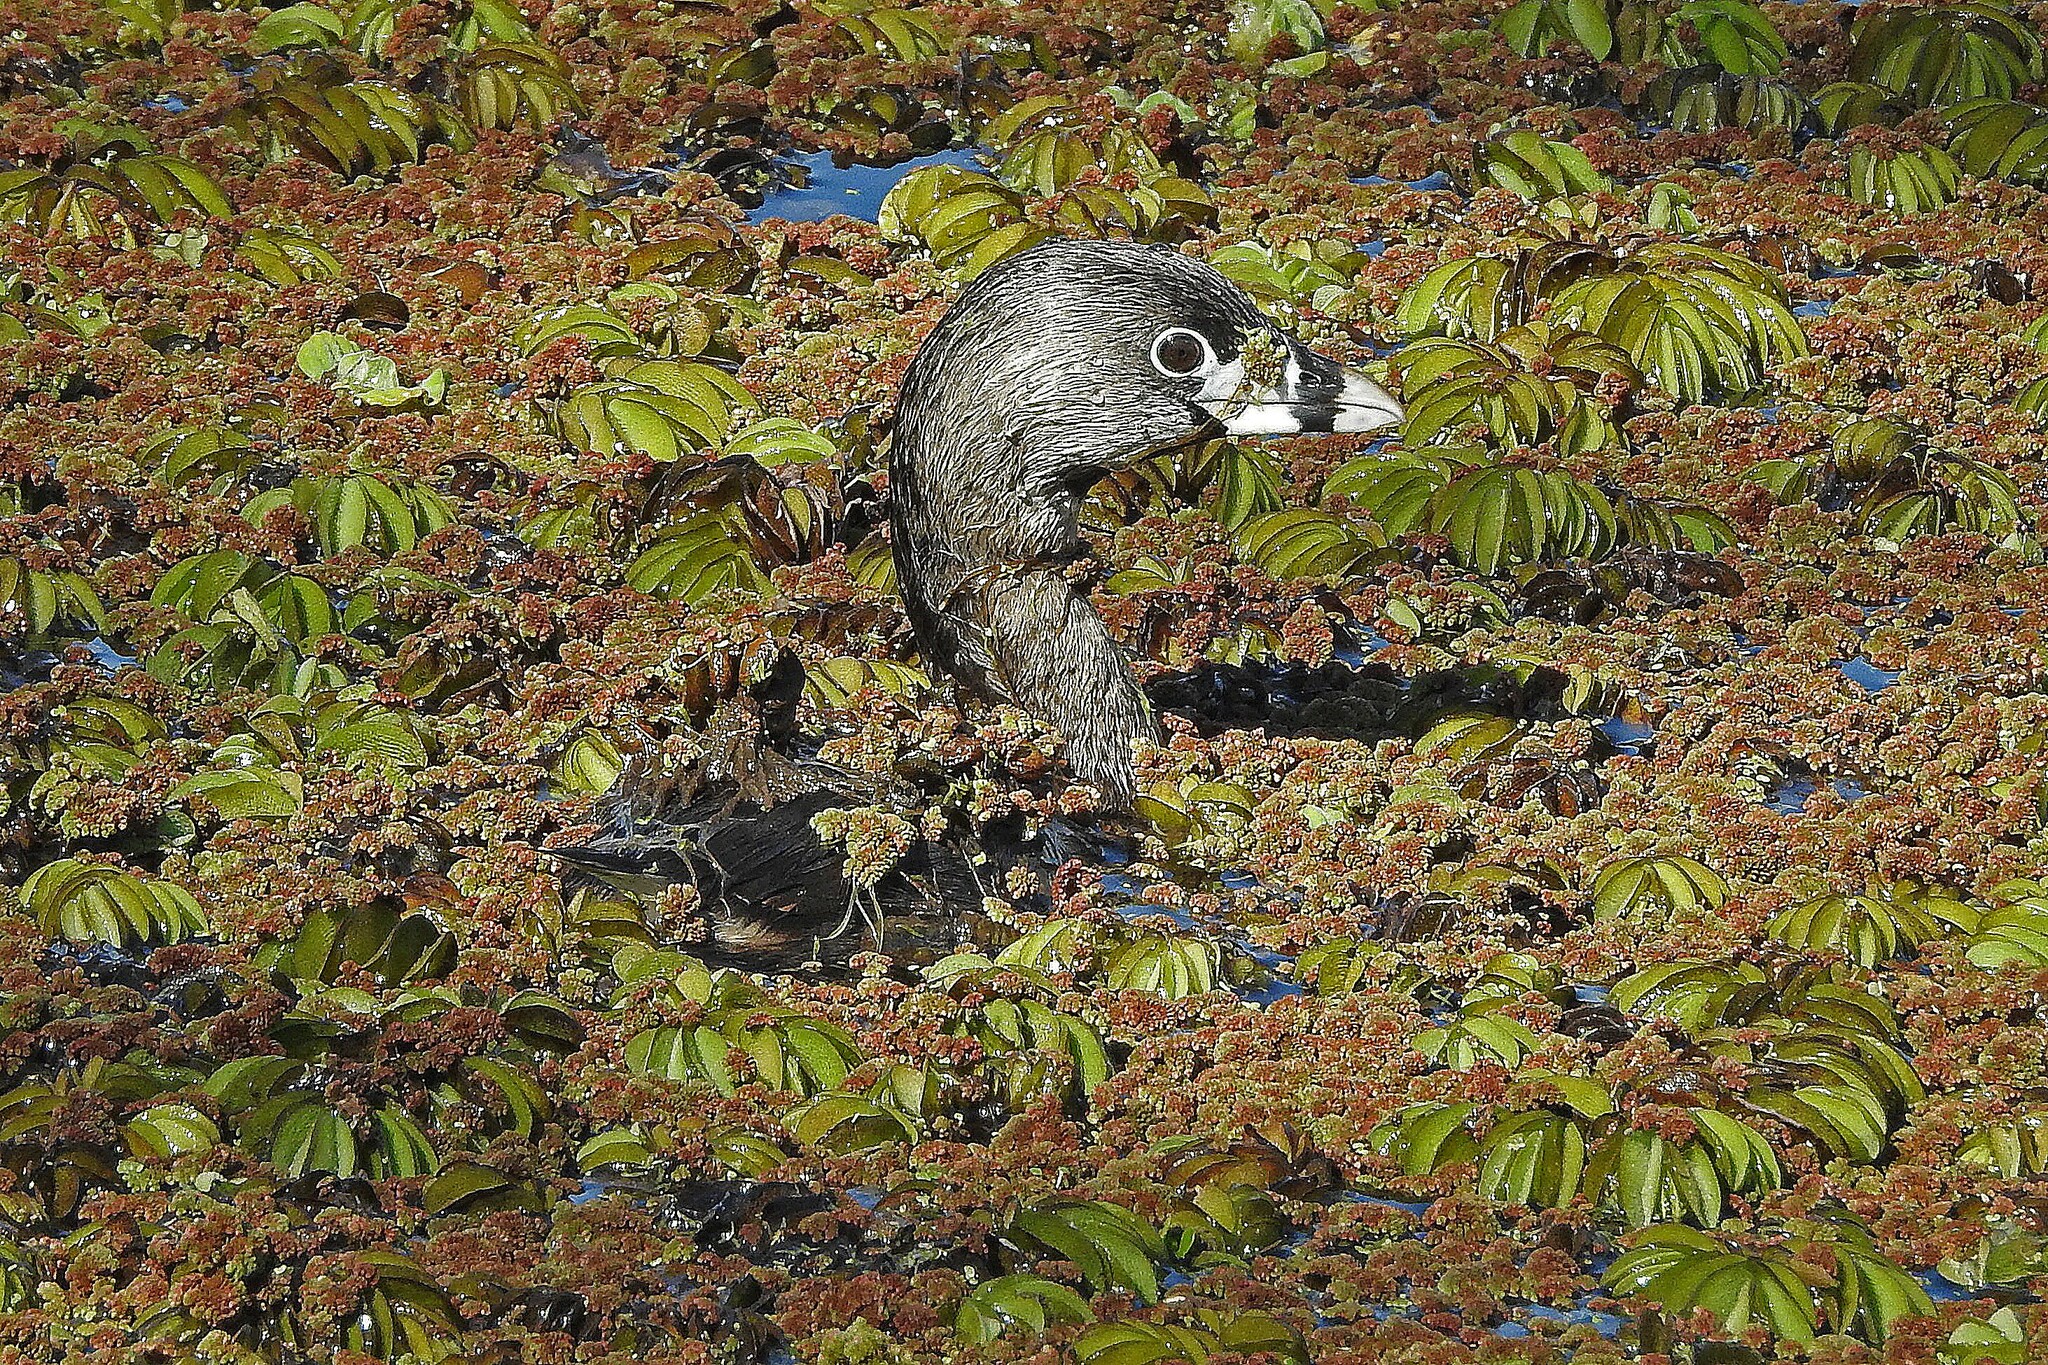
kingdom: Animalia
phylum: Chordata
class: Aves
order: Podicipediformes
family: Podicipedidae
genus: Podilymbus
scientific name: Podilymbus podiceps
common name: Pied-billed grebe
